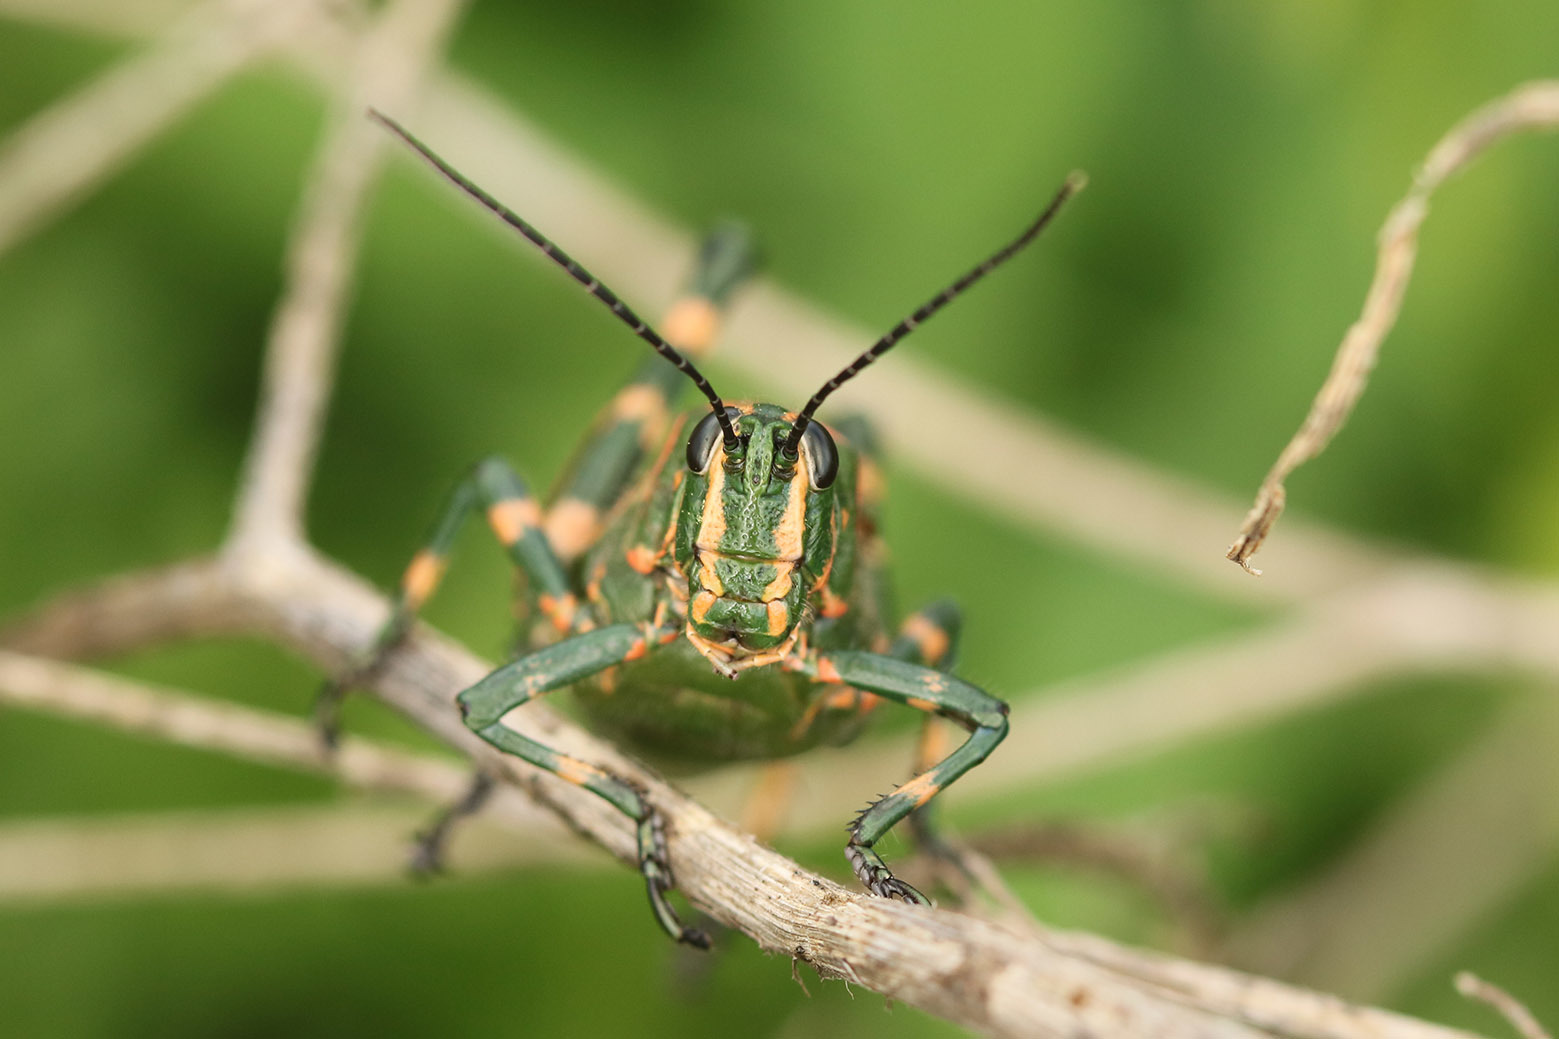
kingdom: Animalia
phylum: Arthropoda
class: Insecta
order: Orthoptera
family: Romaleidae
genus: Chromacris
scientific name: Chromacris speciosa
